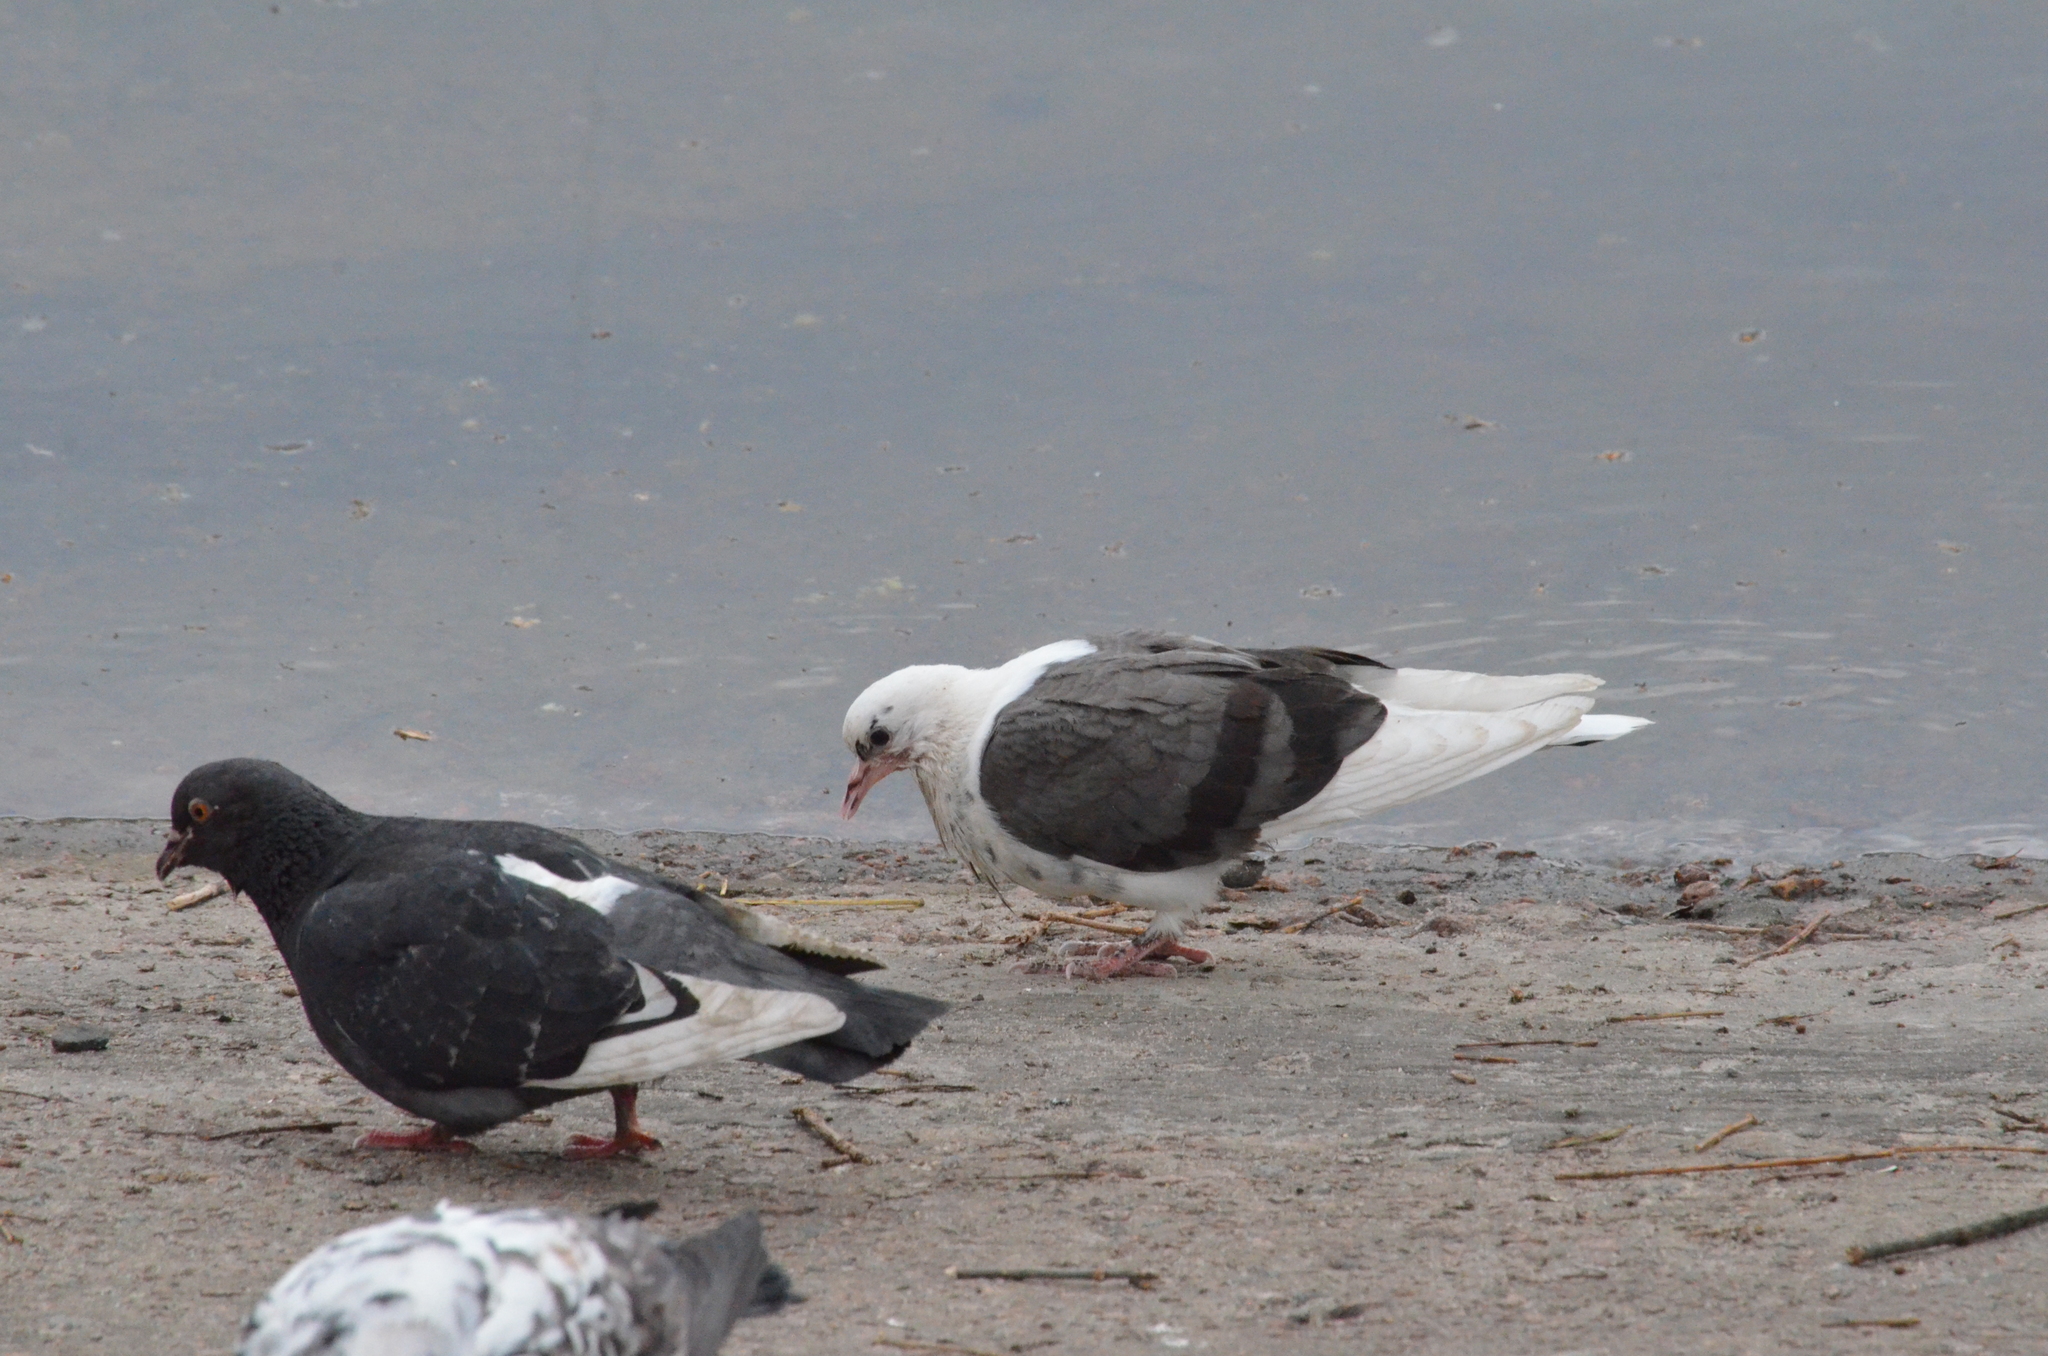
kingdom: Animalia
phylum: Chordata
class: Aves
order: Columbiformes
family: Columbidae
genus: Columba
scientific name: Columba livia
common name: Rock pigeon
